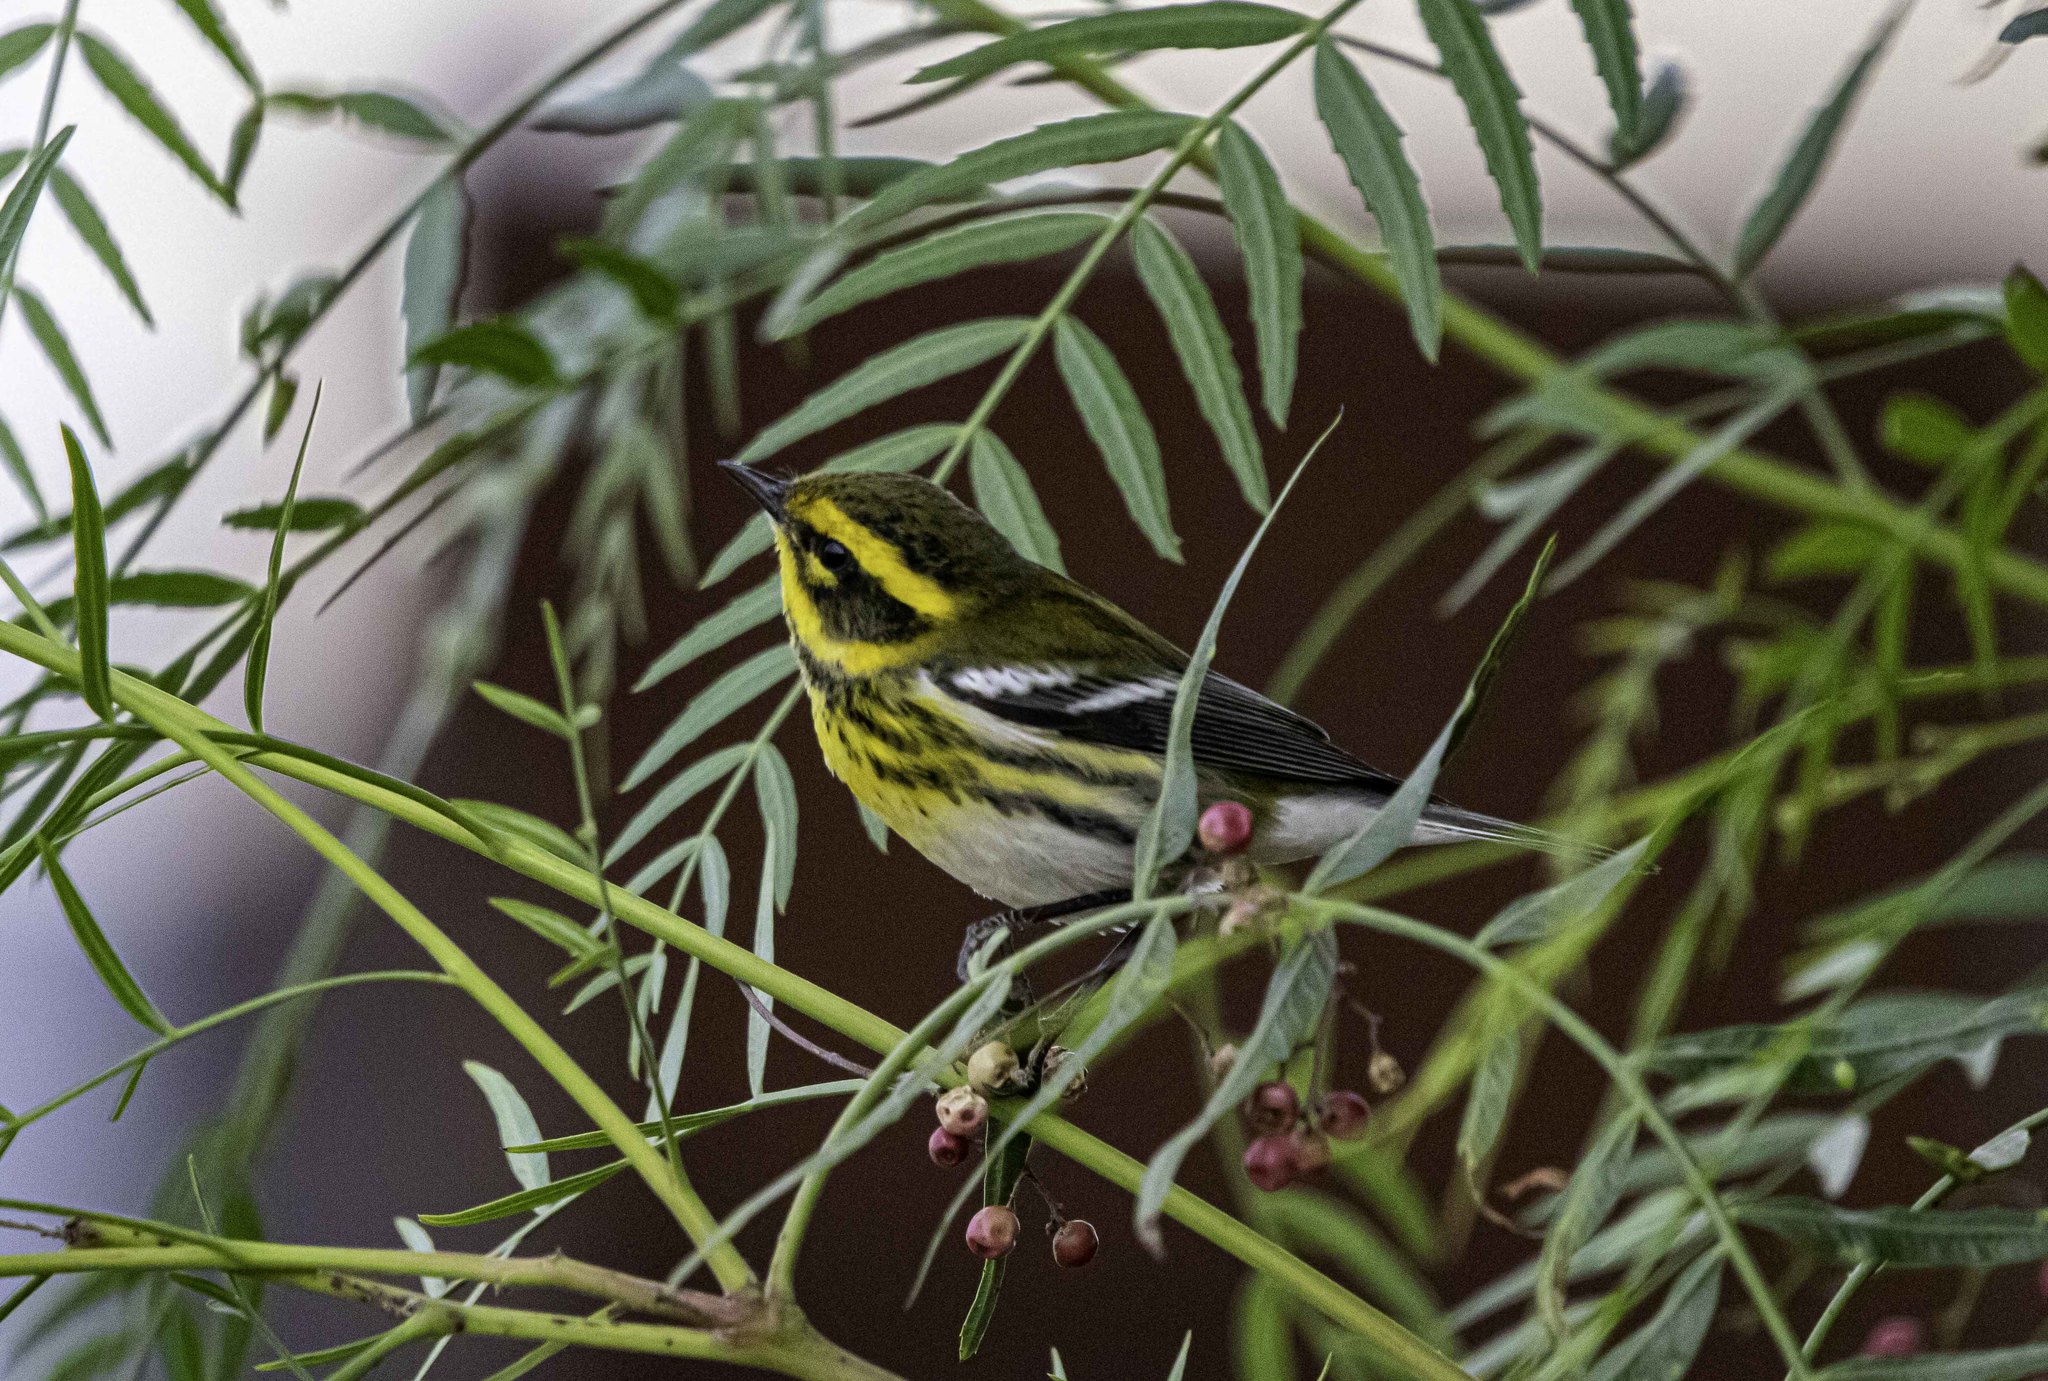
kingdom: Animalia
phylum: Chordata
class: Aves
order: Passeriformes
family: Parulidae
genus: Setophaga
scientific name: Setophaga townsendi
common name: Townsend's warbler
